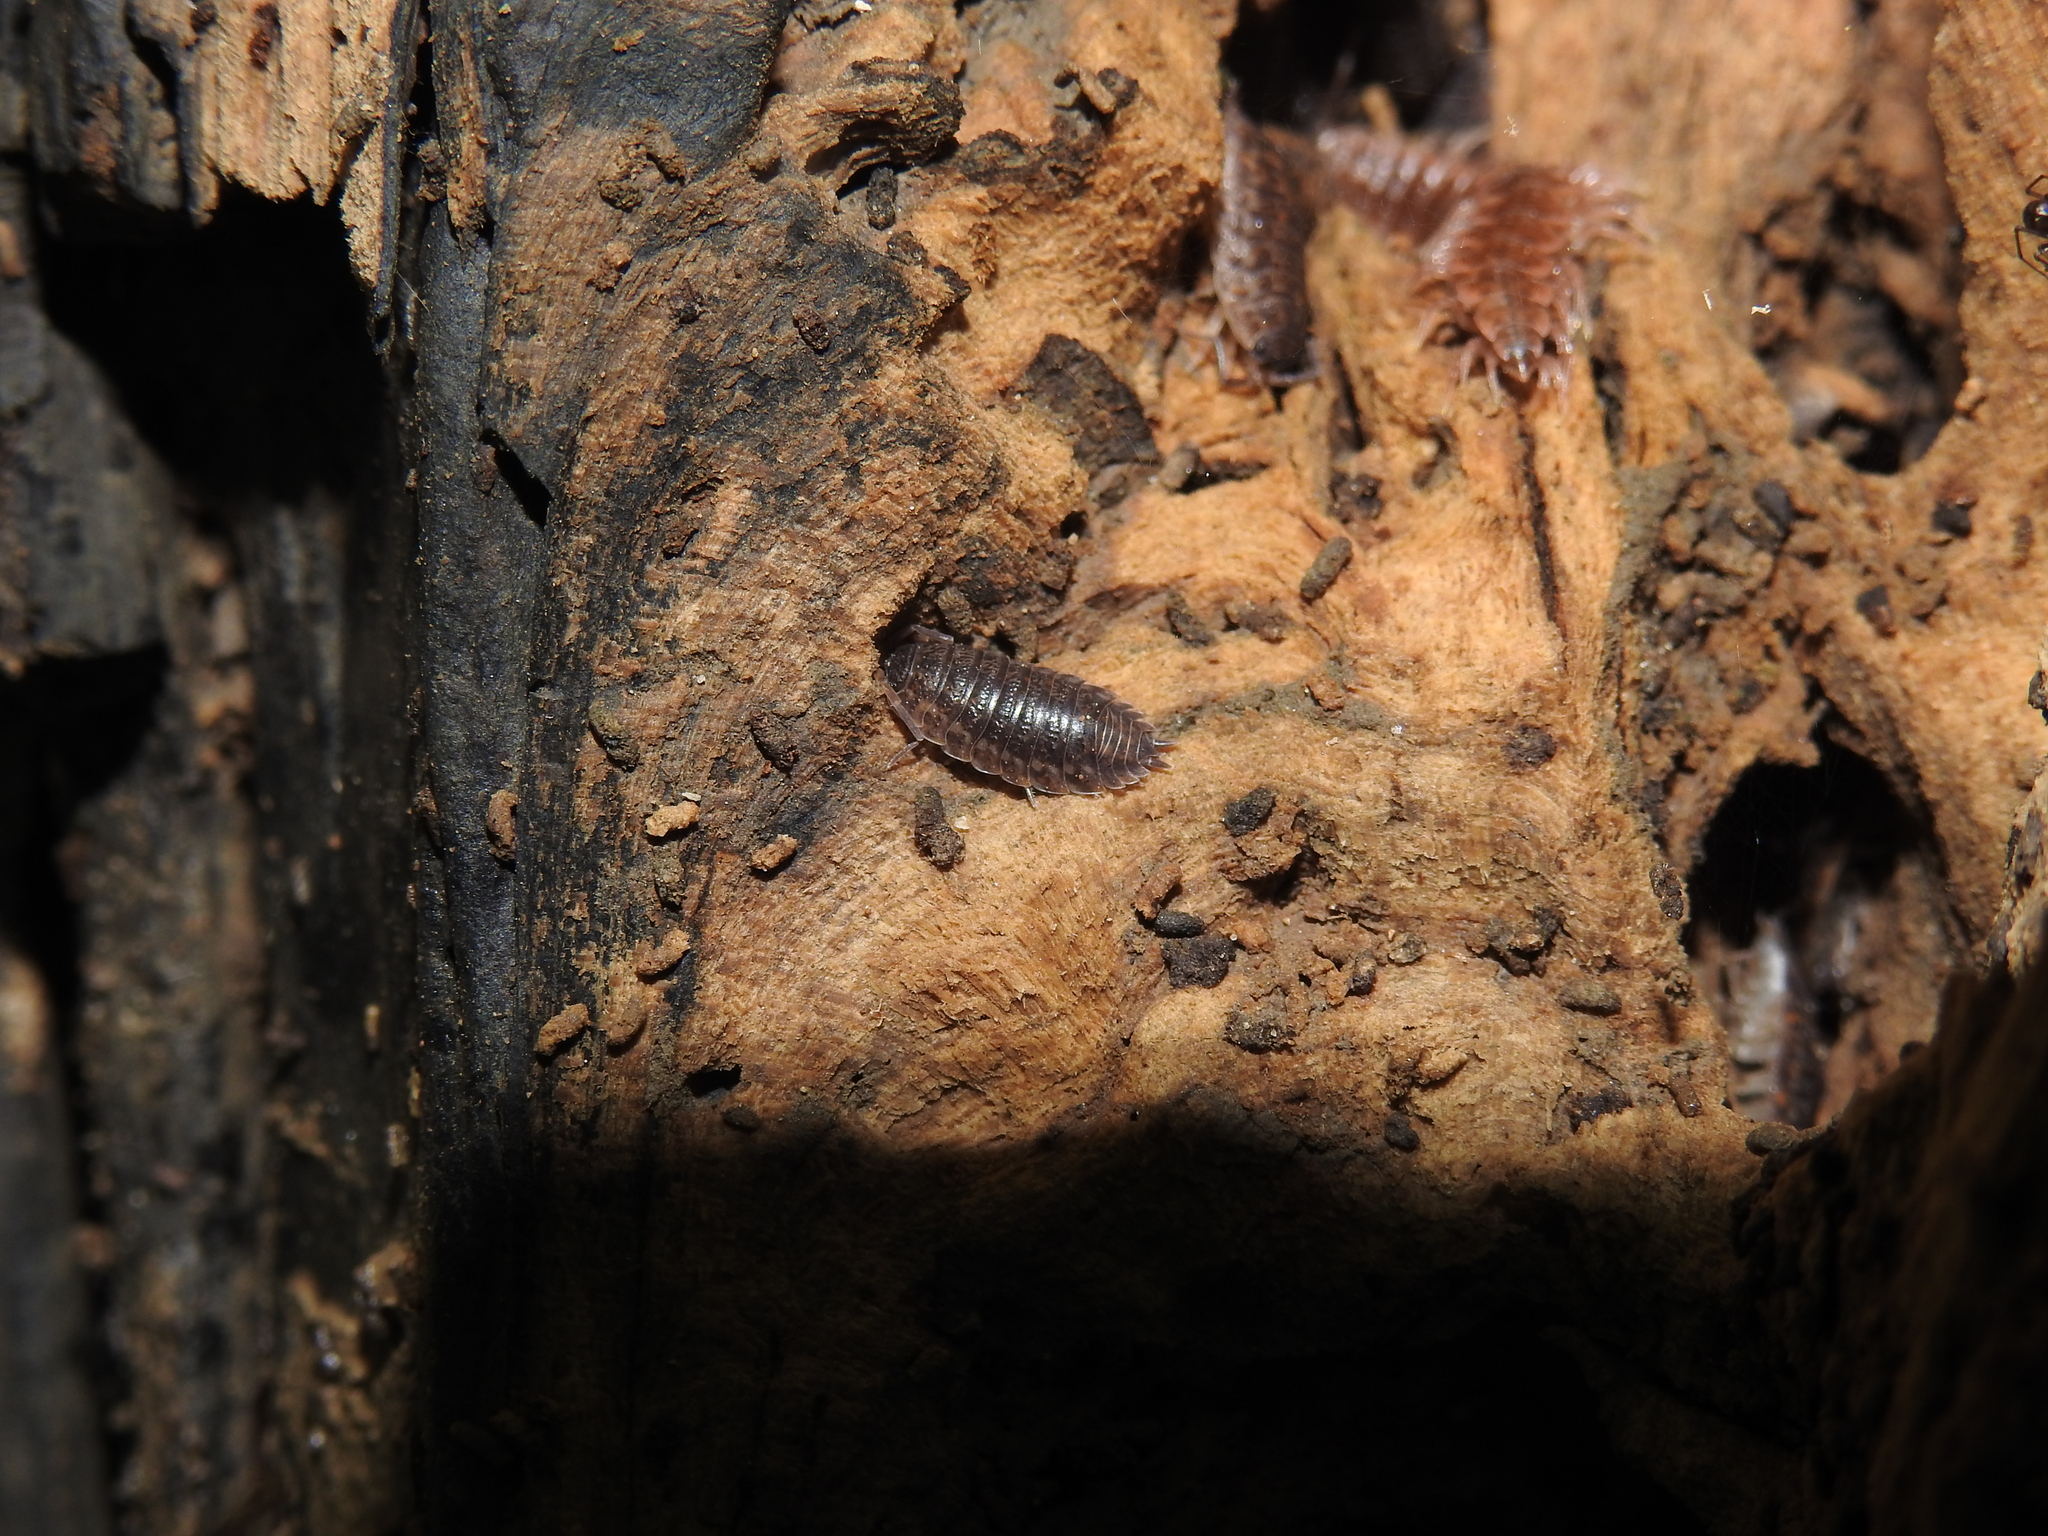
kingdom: Animalia
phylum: Arthropoda
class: Malacostraca
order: Isopoda
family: Trachelipodidae
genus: Trachelipus
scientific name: Trachelipus rathkii
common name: Isopod
